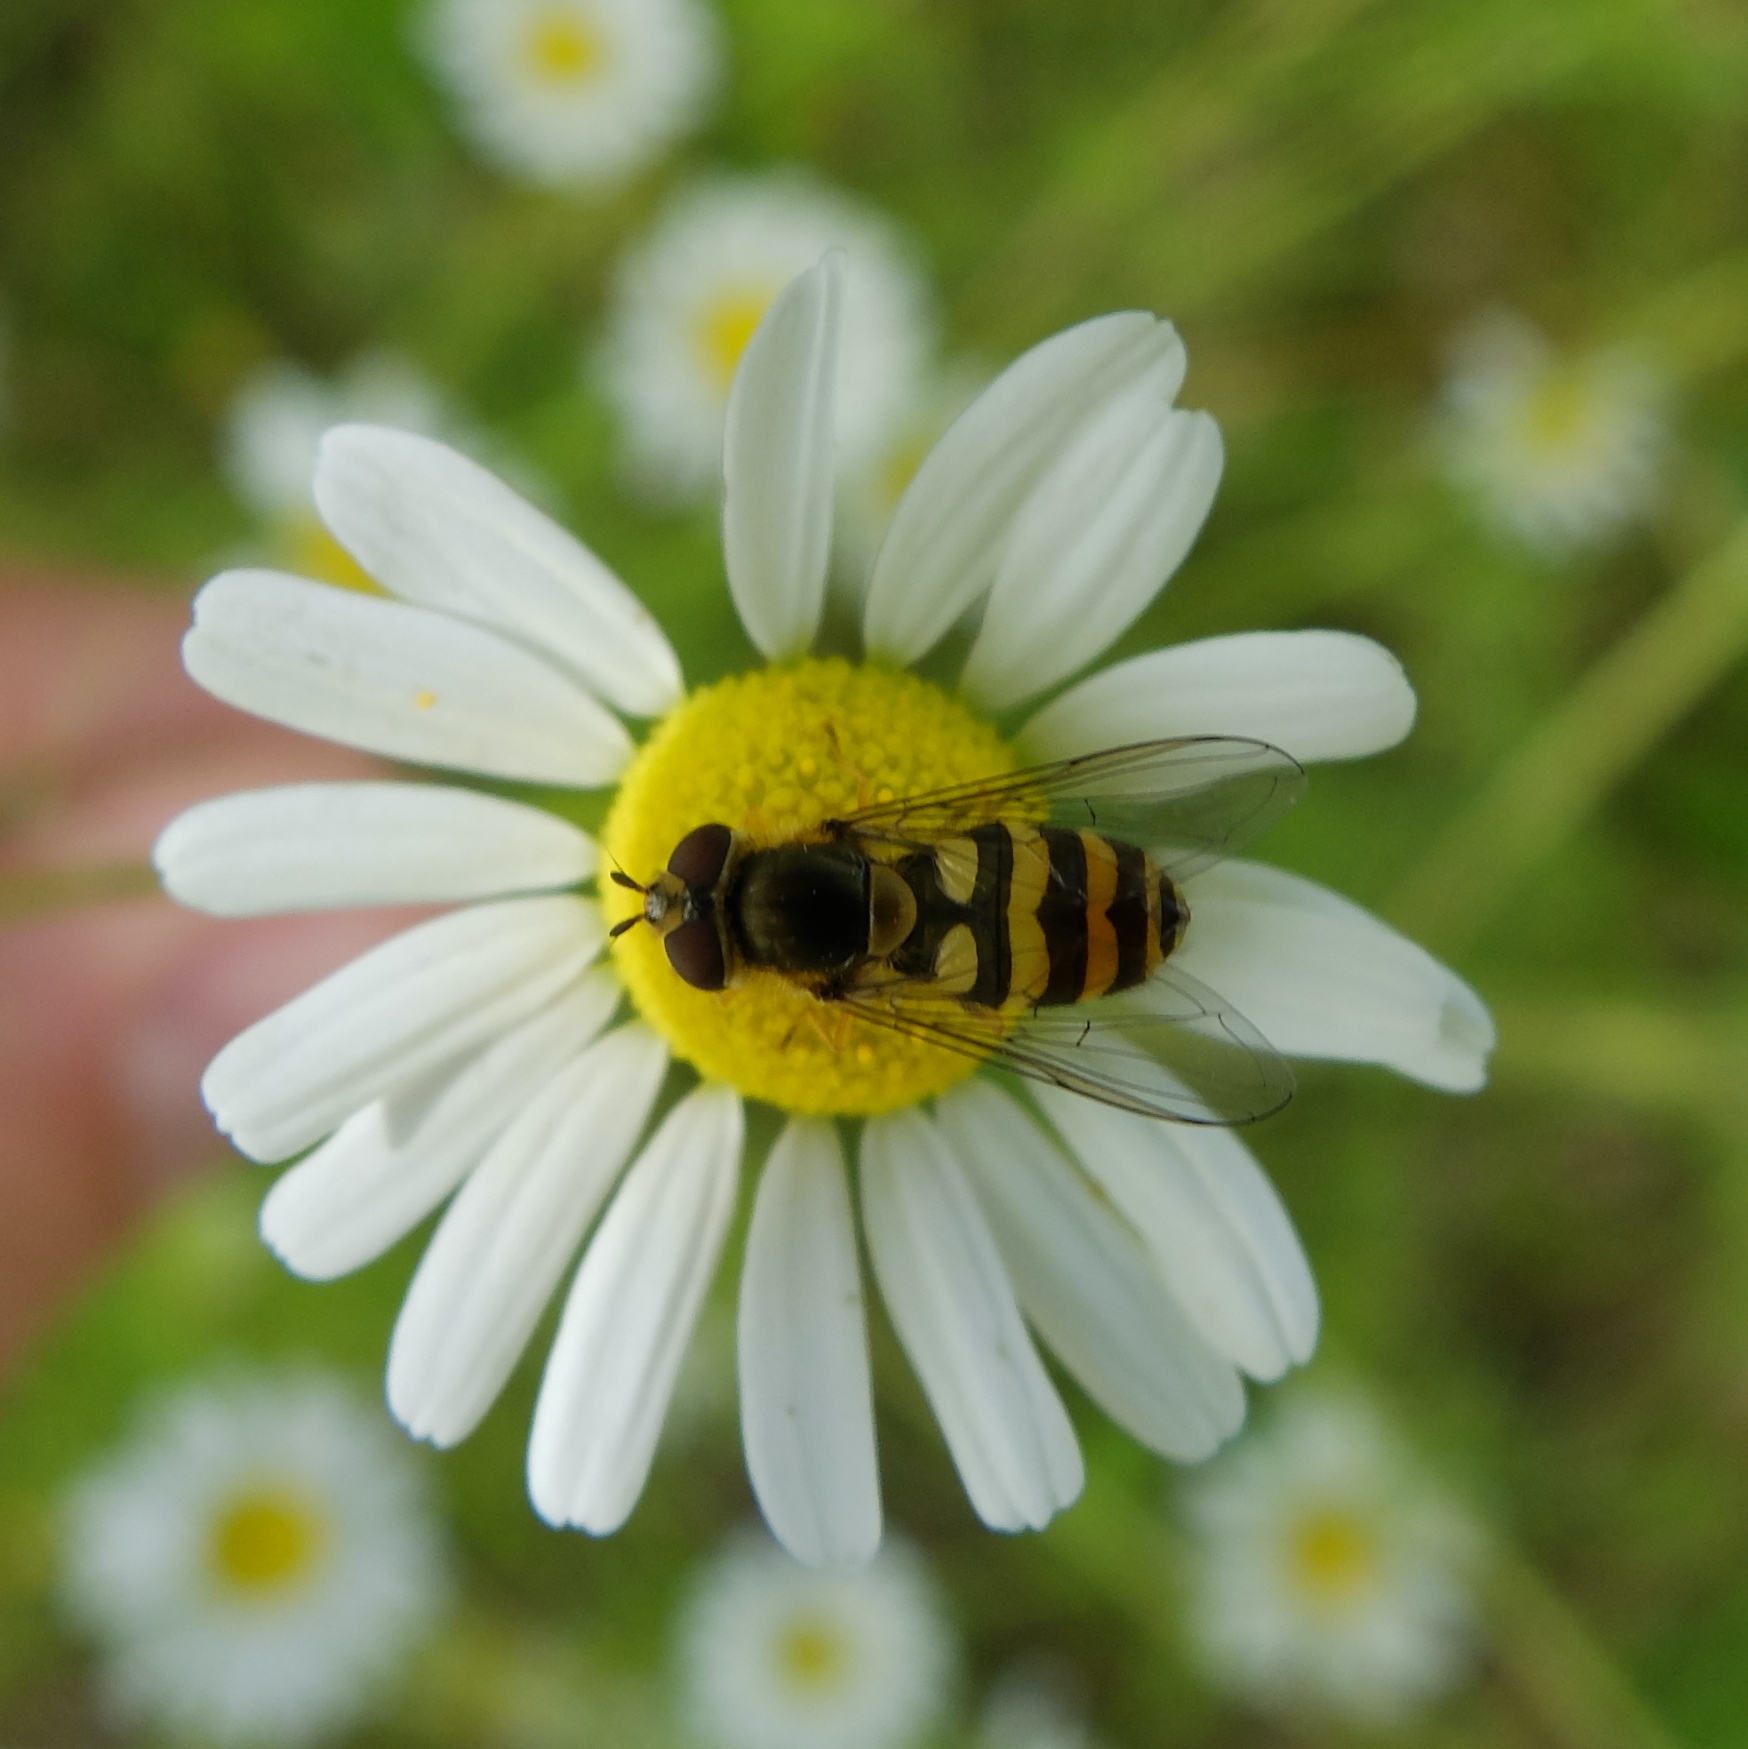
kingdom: Animalia
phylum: Arthropoda
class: Insecta
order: Diptera
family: Syrphidae
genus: Syrphus
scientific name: Syrphus
